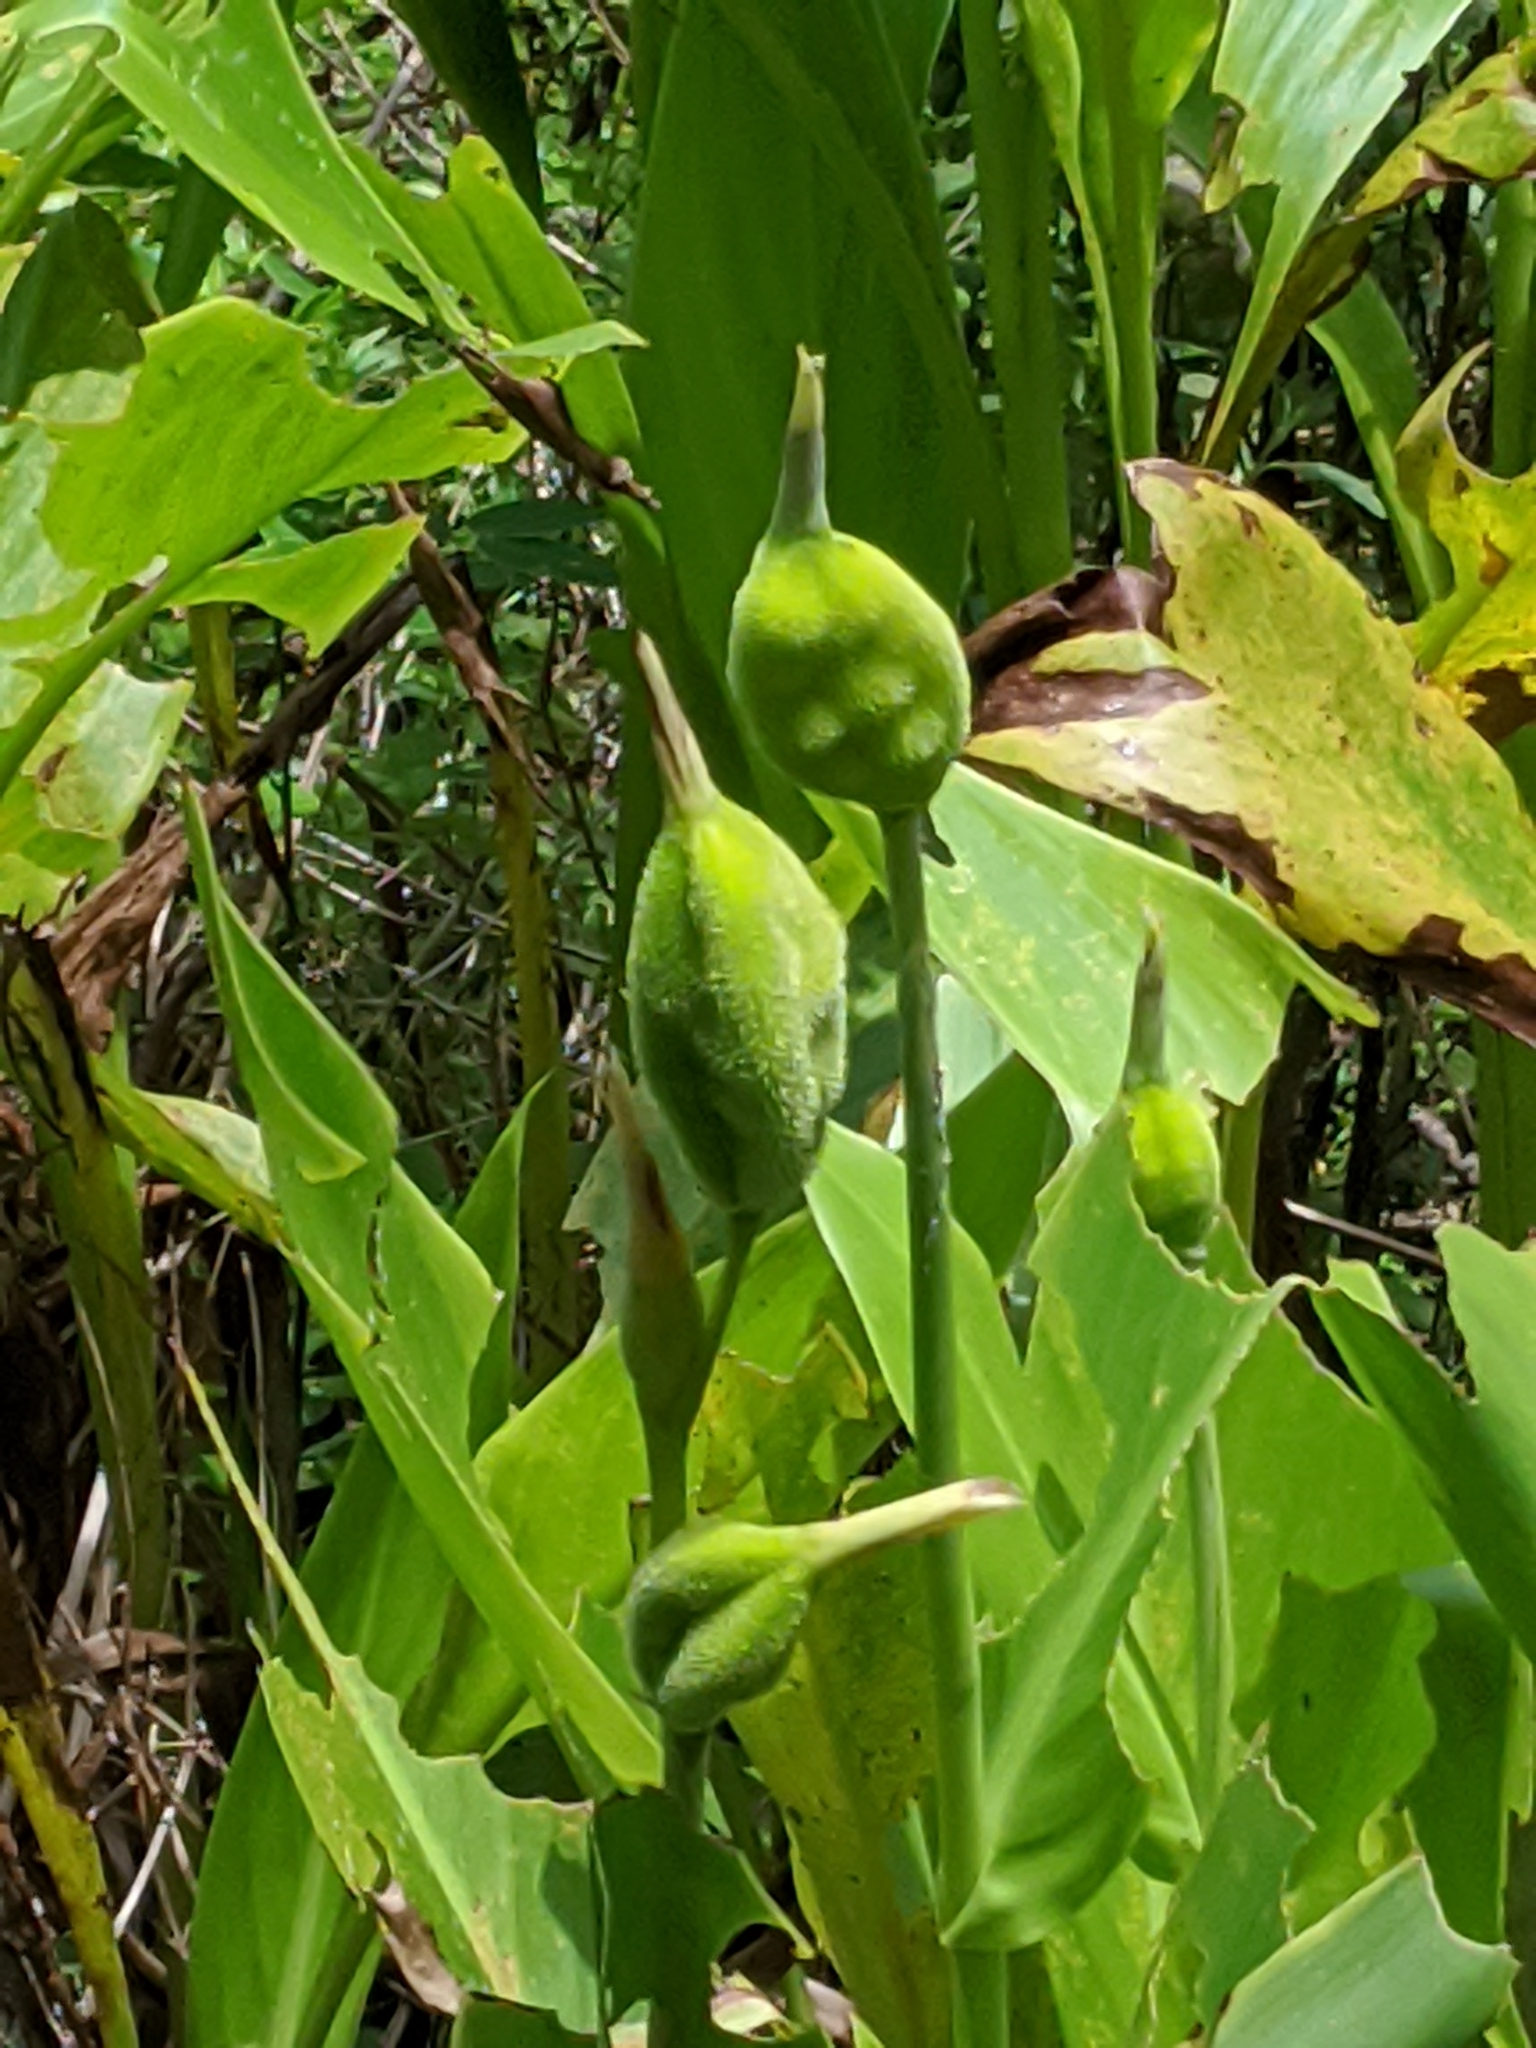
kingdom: Plantae
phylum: Tracheophyta
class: Liliopsida
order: Zingiberales
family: Cannaceae
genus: Canna
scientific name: Canna flaccida
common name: Bandana-of-the-everglades
